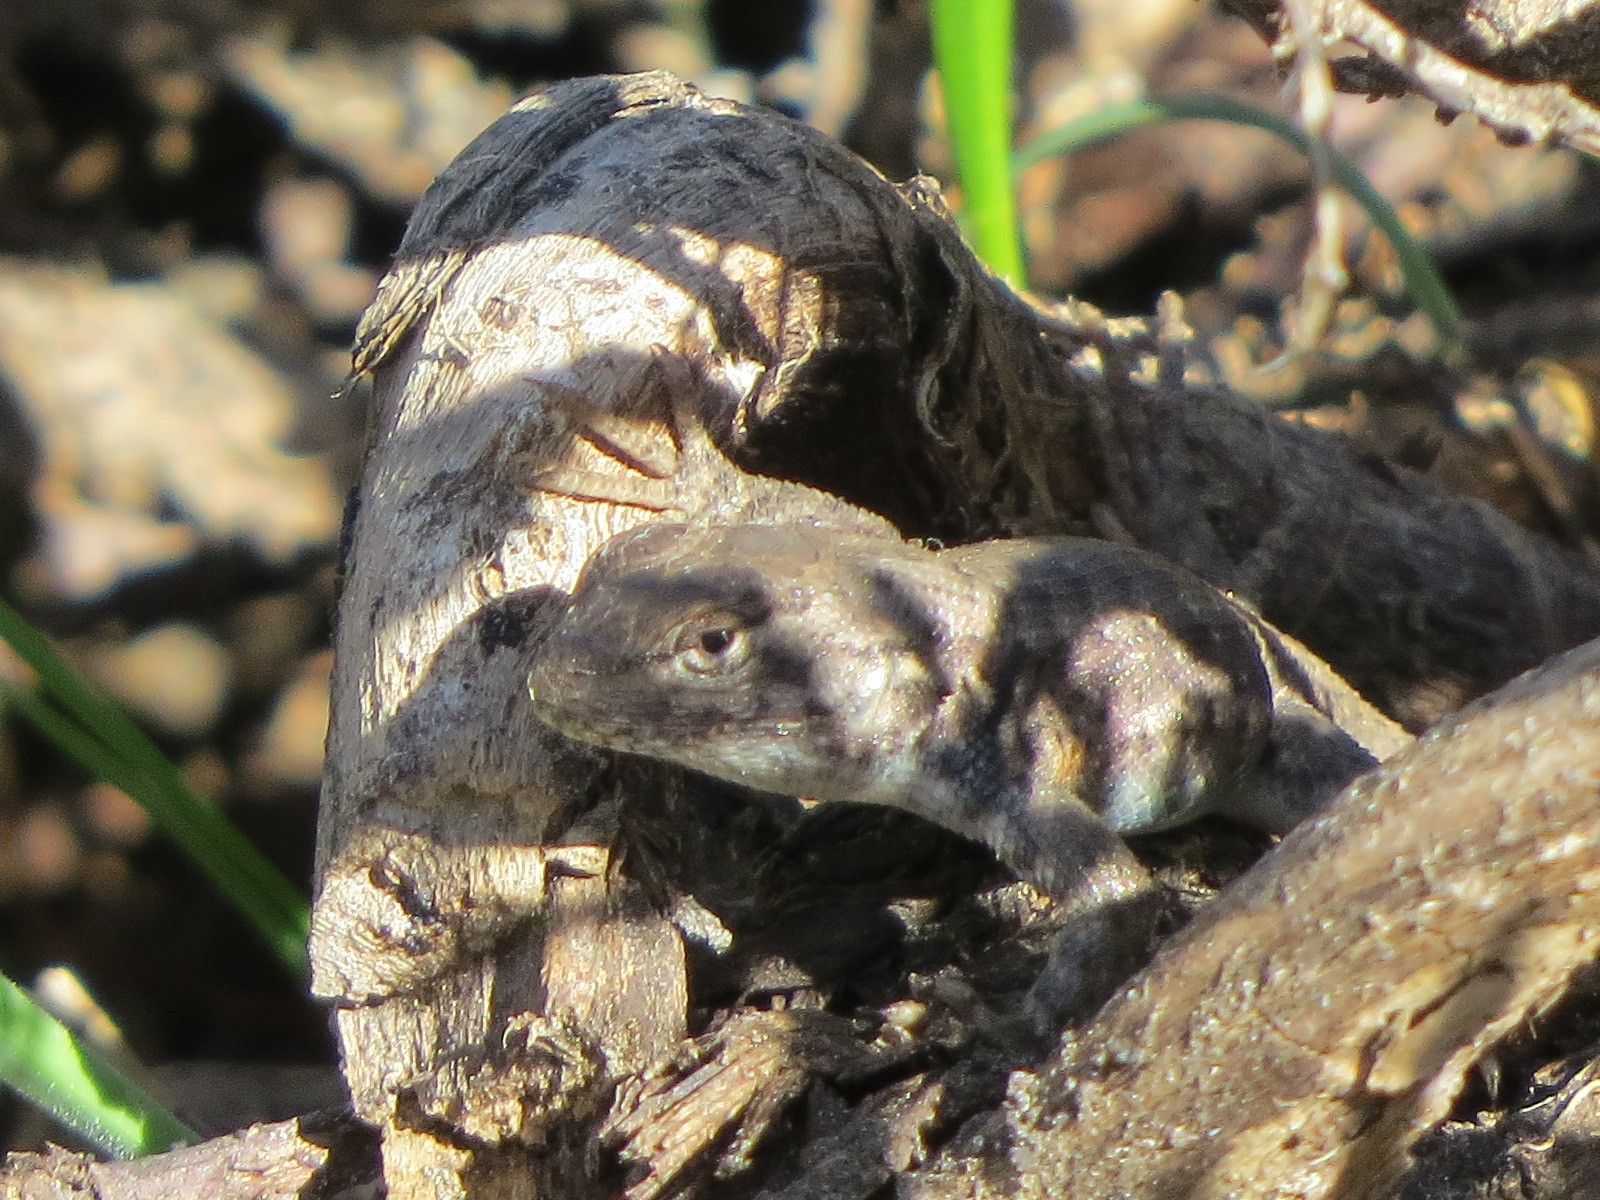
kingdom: Animalia
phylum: Chordata
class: Squamata
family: Phrynosomatidae
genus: Sceloporus
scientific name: Sceloporus graciosus
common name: Sagebrush lizard
